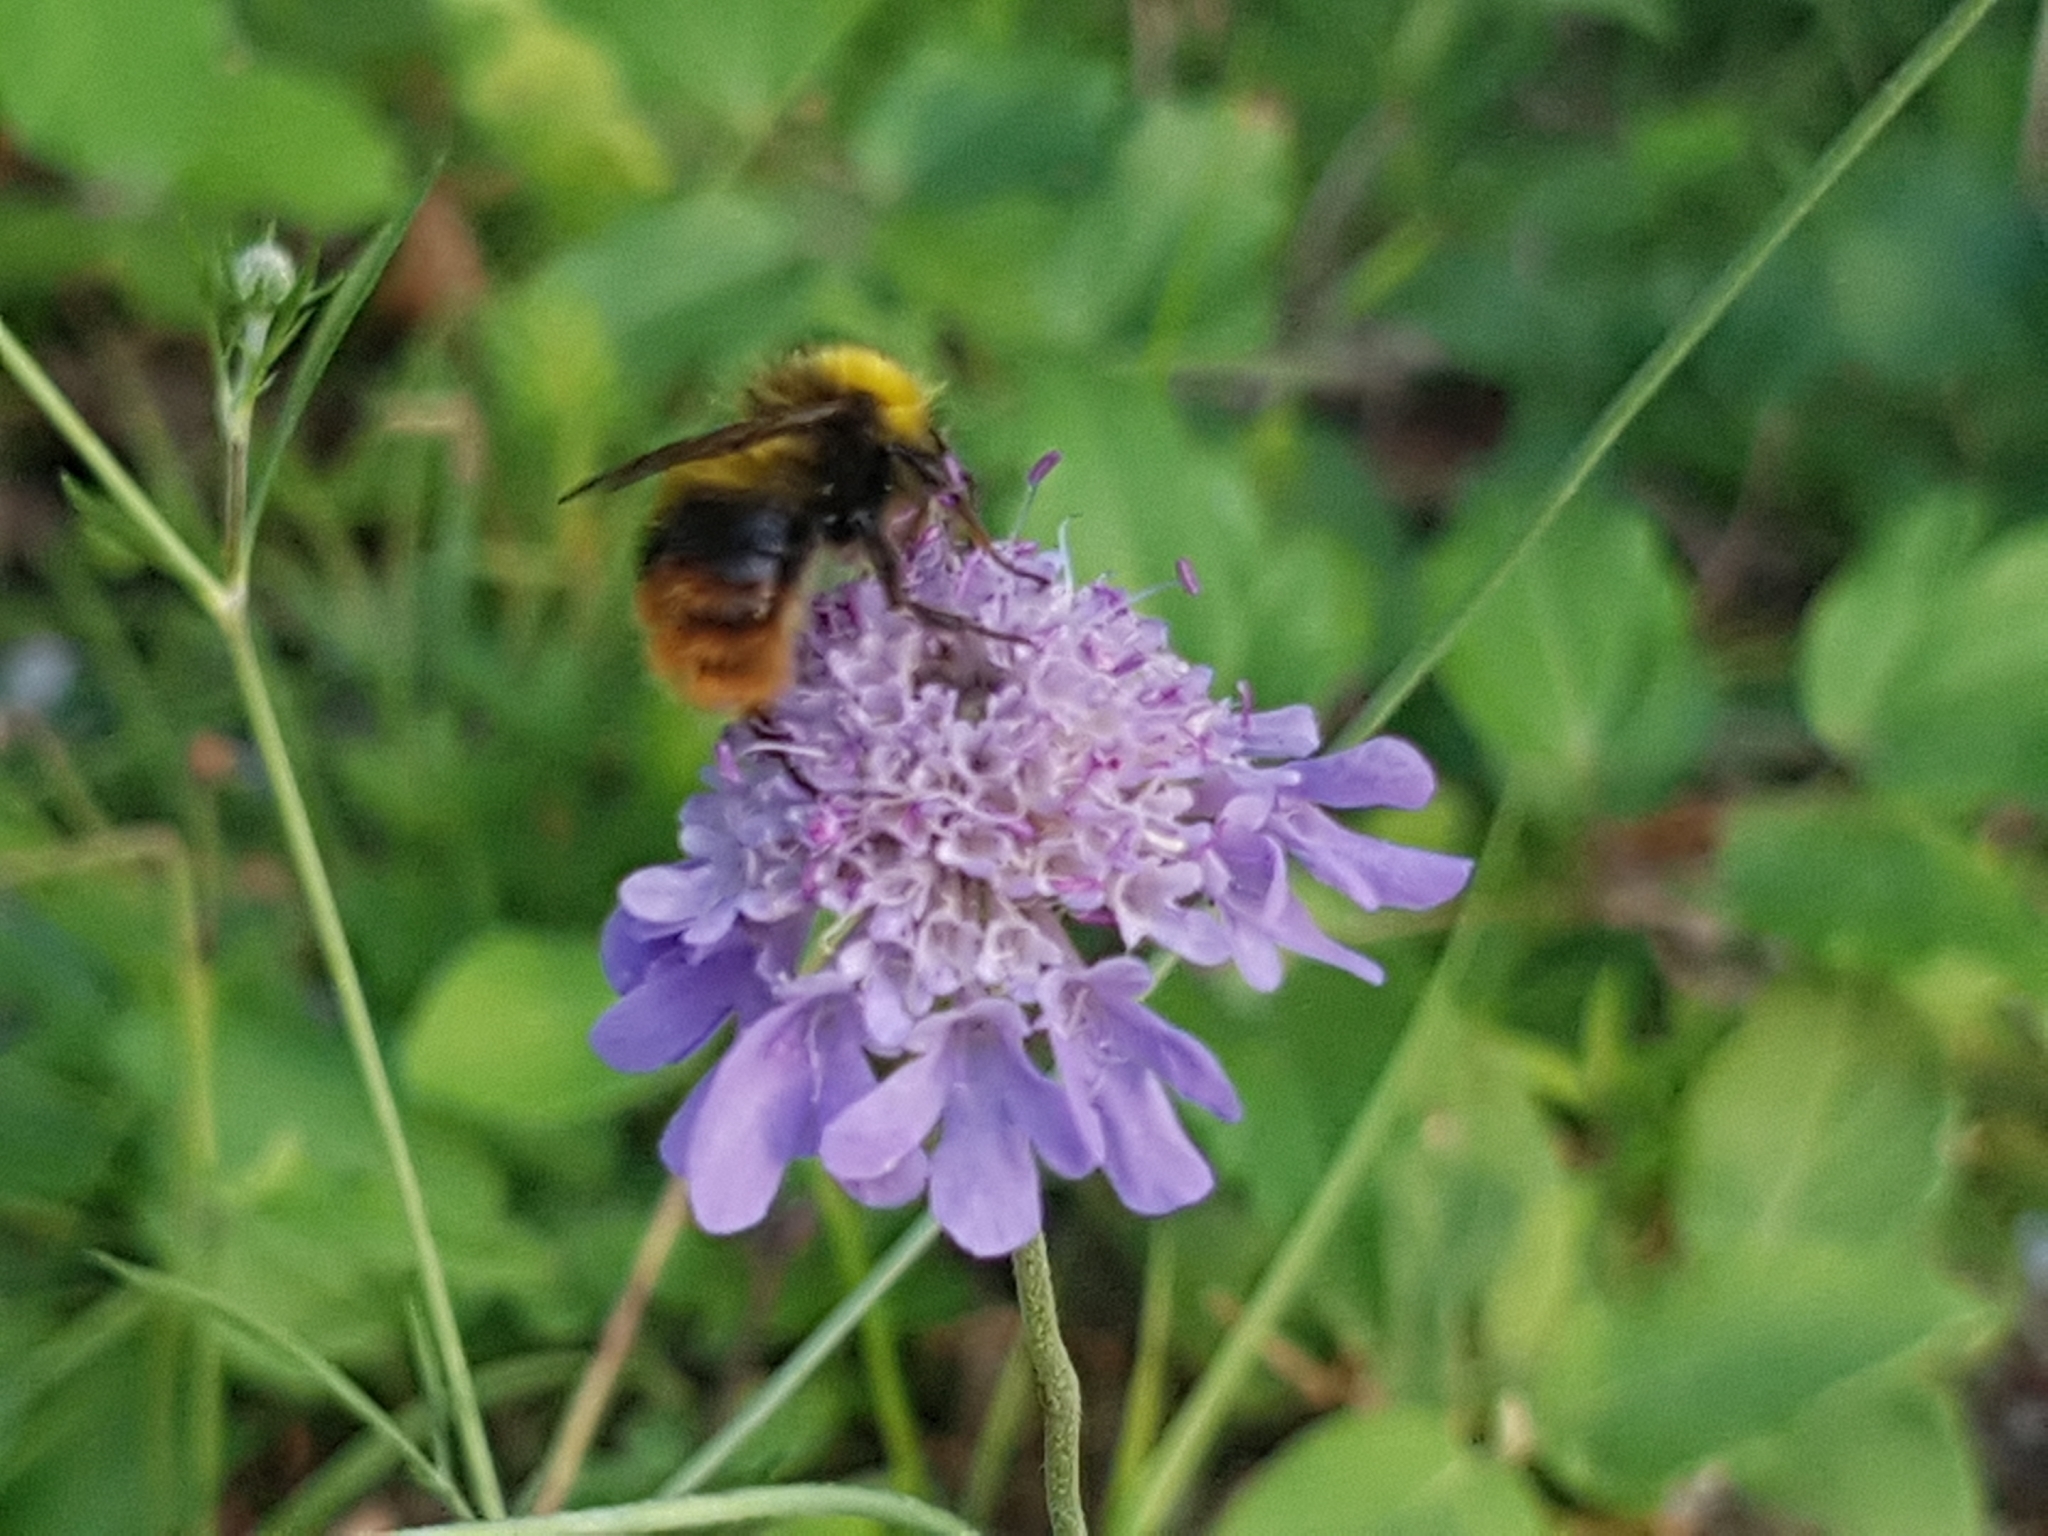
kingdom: Animalia
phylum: Arthropoda
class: Insecta
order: Hymenoptera
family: Apidae
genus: Bombus
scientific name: Bombus pratorum
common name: Early humble-bee
